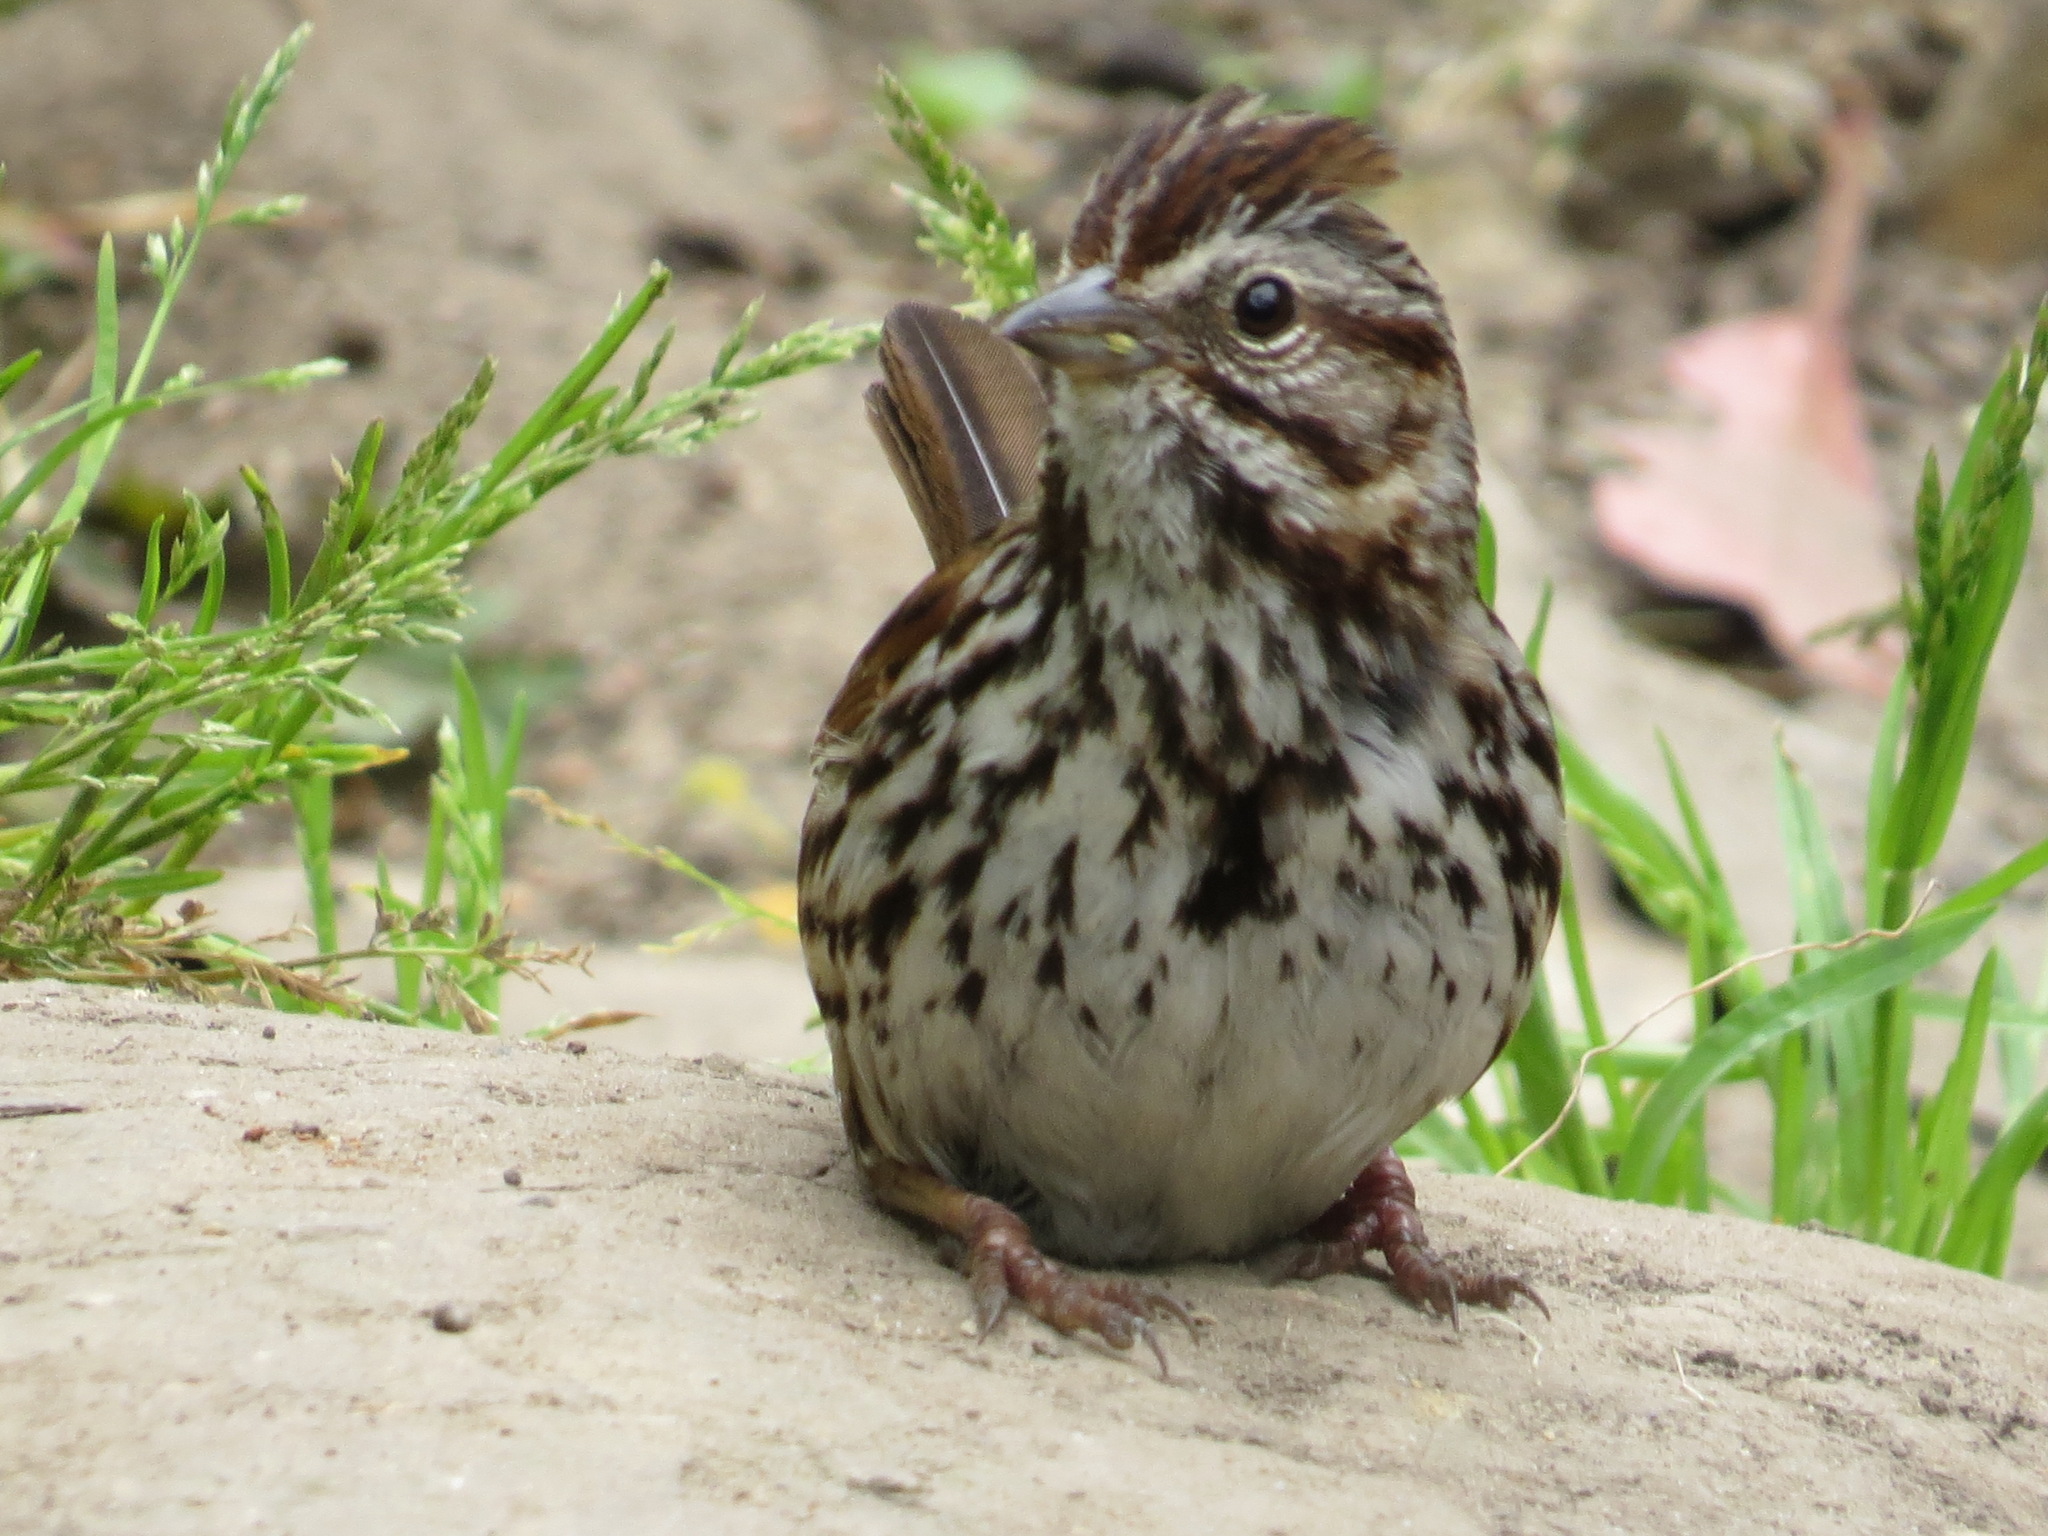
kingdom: Animalia
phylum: Chordata
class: Aves
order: Passeriformes
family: Passerellidae
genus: Melospiza
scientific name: Melospiza melodia
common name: Song sparrow
